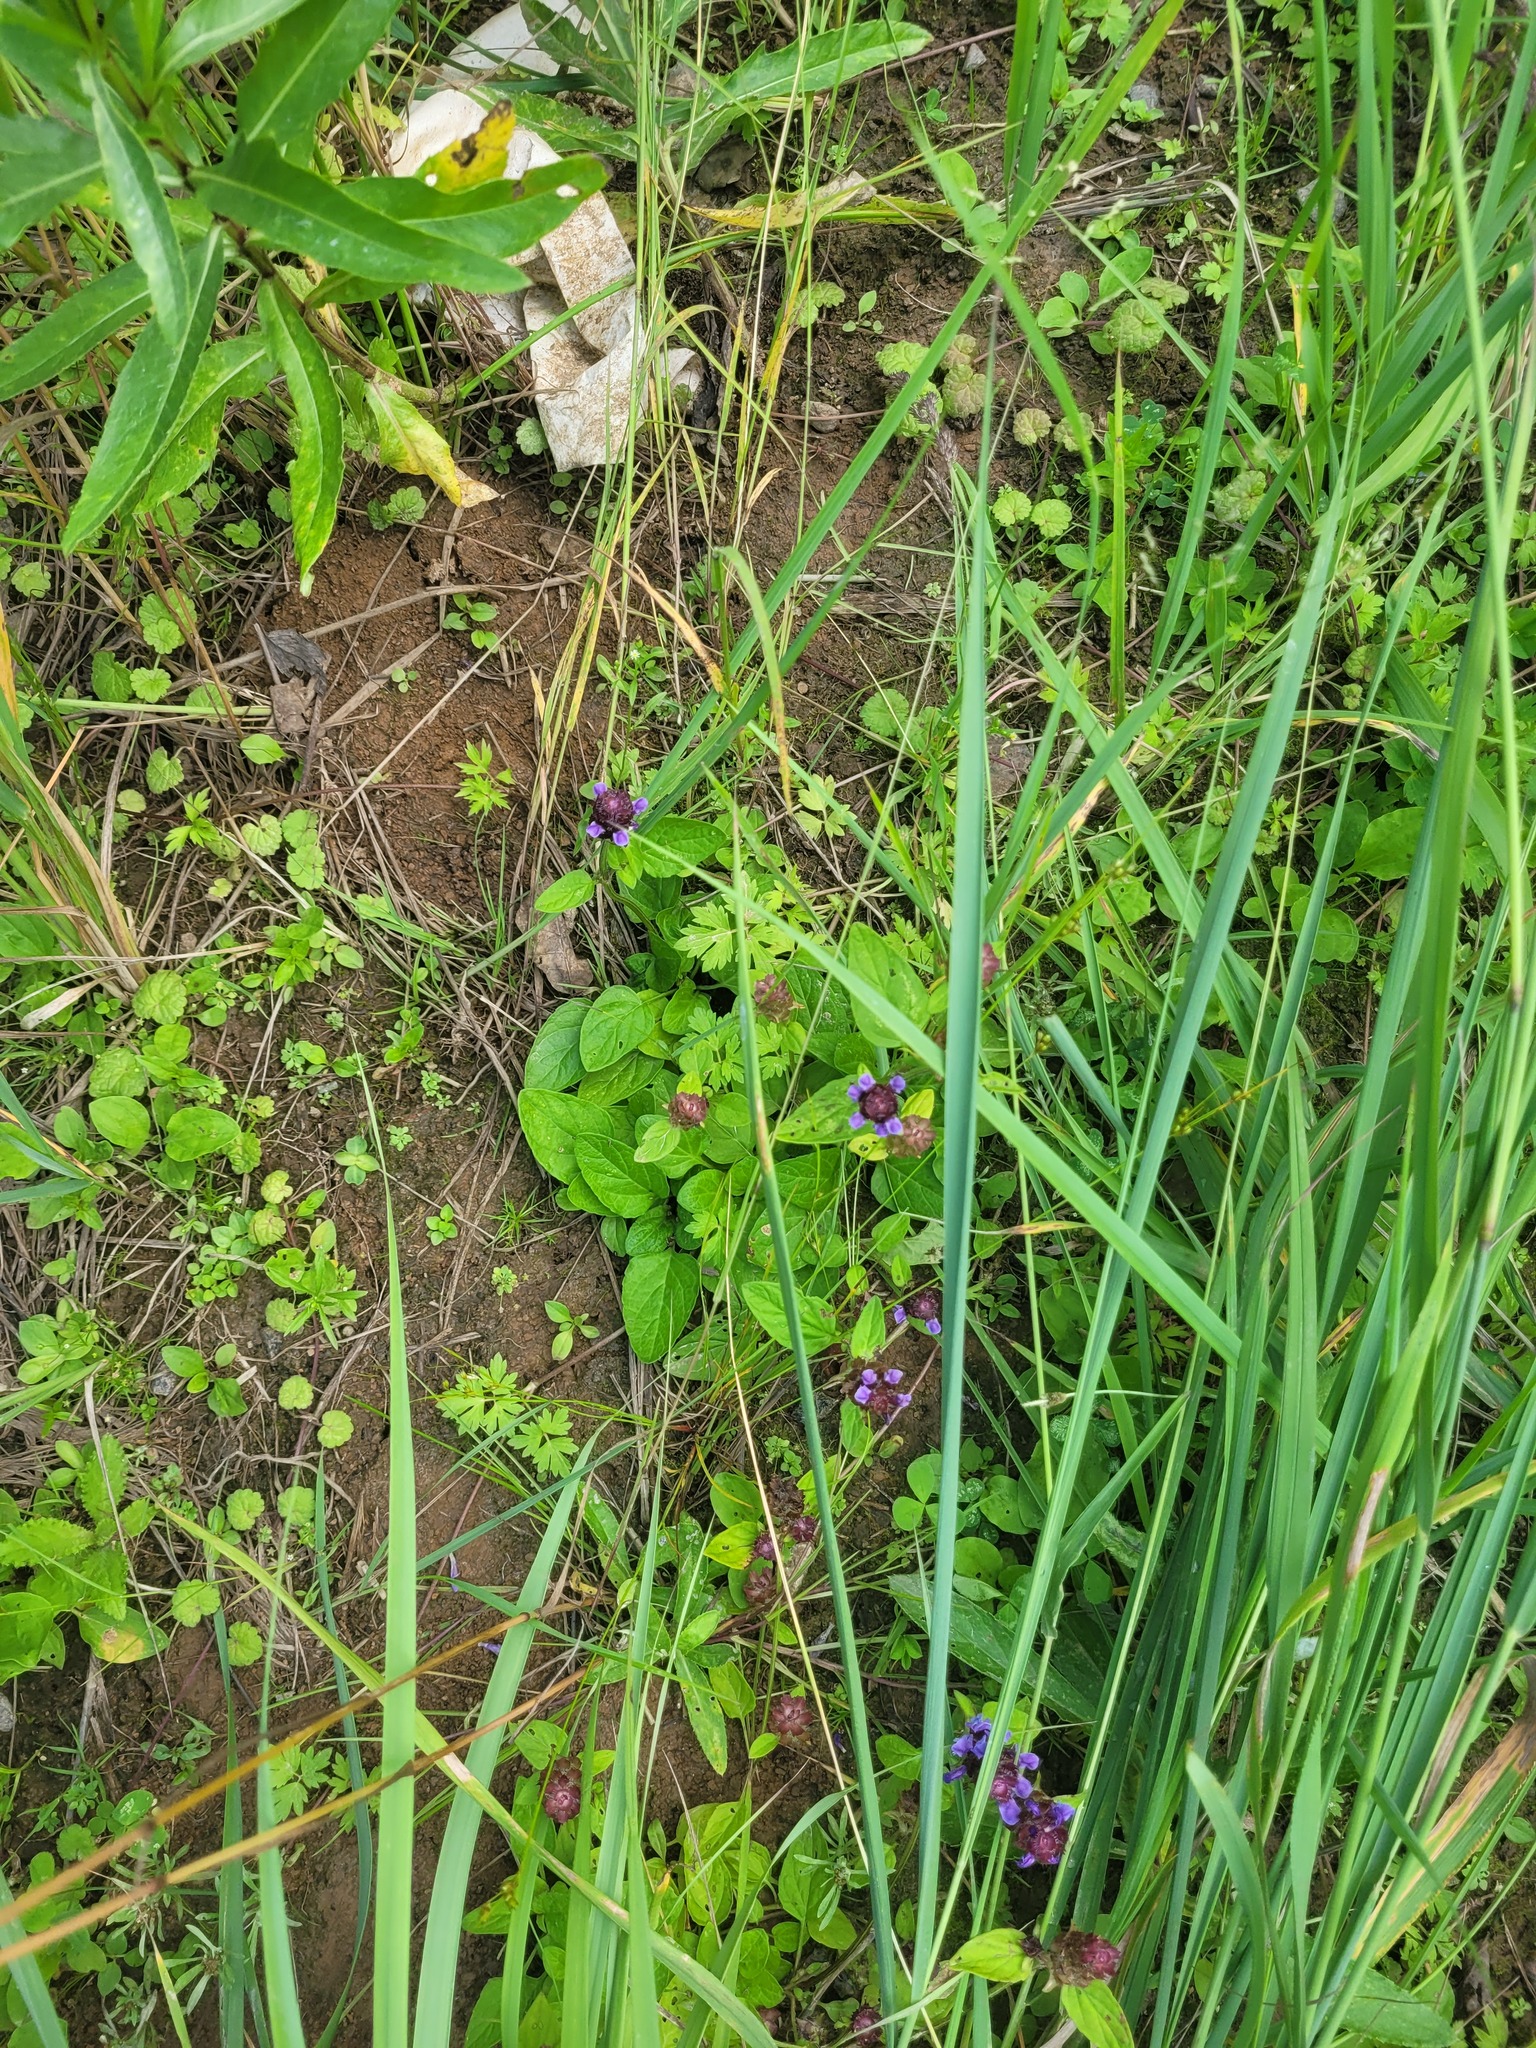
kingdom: Plantae
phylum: Tracheophyta
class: Magnoliopsida
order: Lamiales
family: Lamiaceae
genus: Prunella
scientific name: Prunella vulgaris
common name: Heal-all
